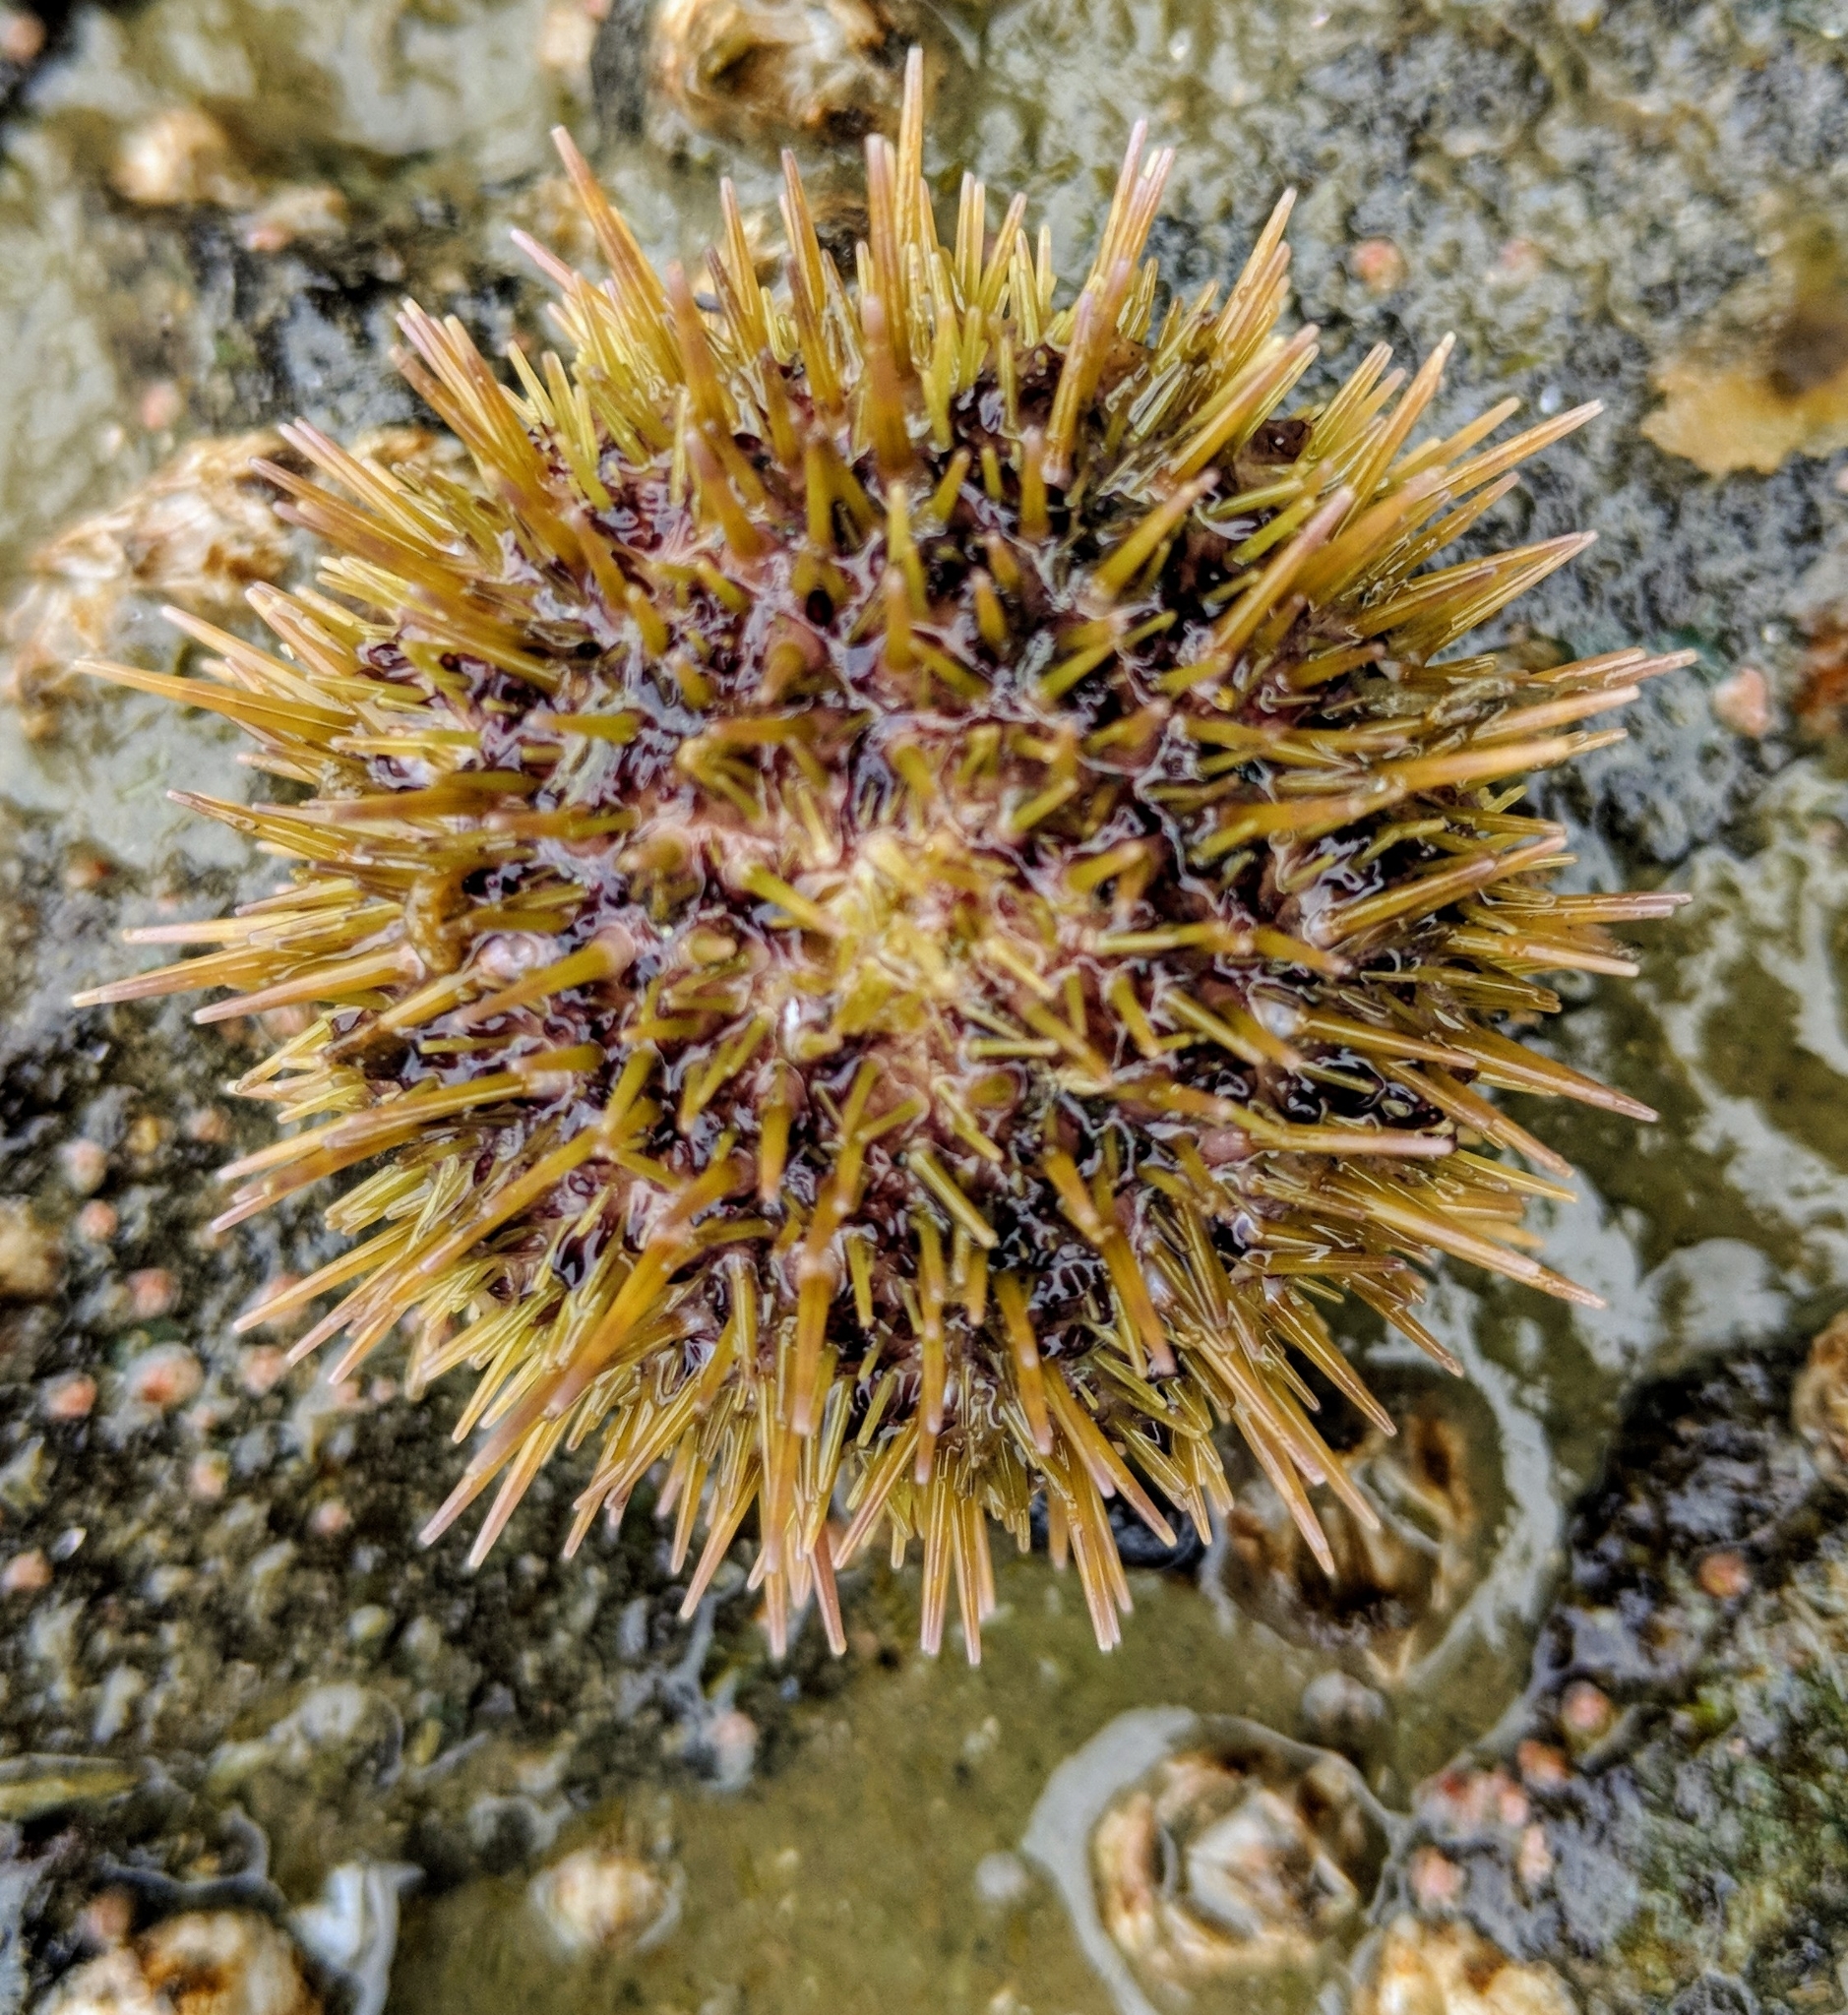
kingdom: Animalia
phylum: Echinodermata
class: Echinoidea
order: Camarodonta
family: Strongylocentrotidae
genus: Strongylocentrotus
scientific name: Strongylocentrotus droebachiensis
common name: Northern sea urchin
